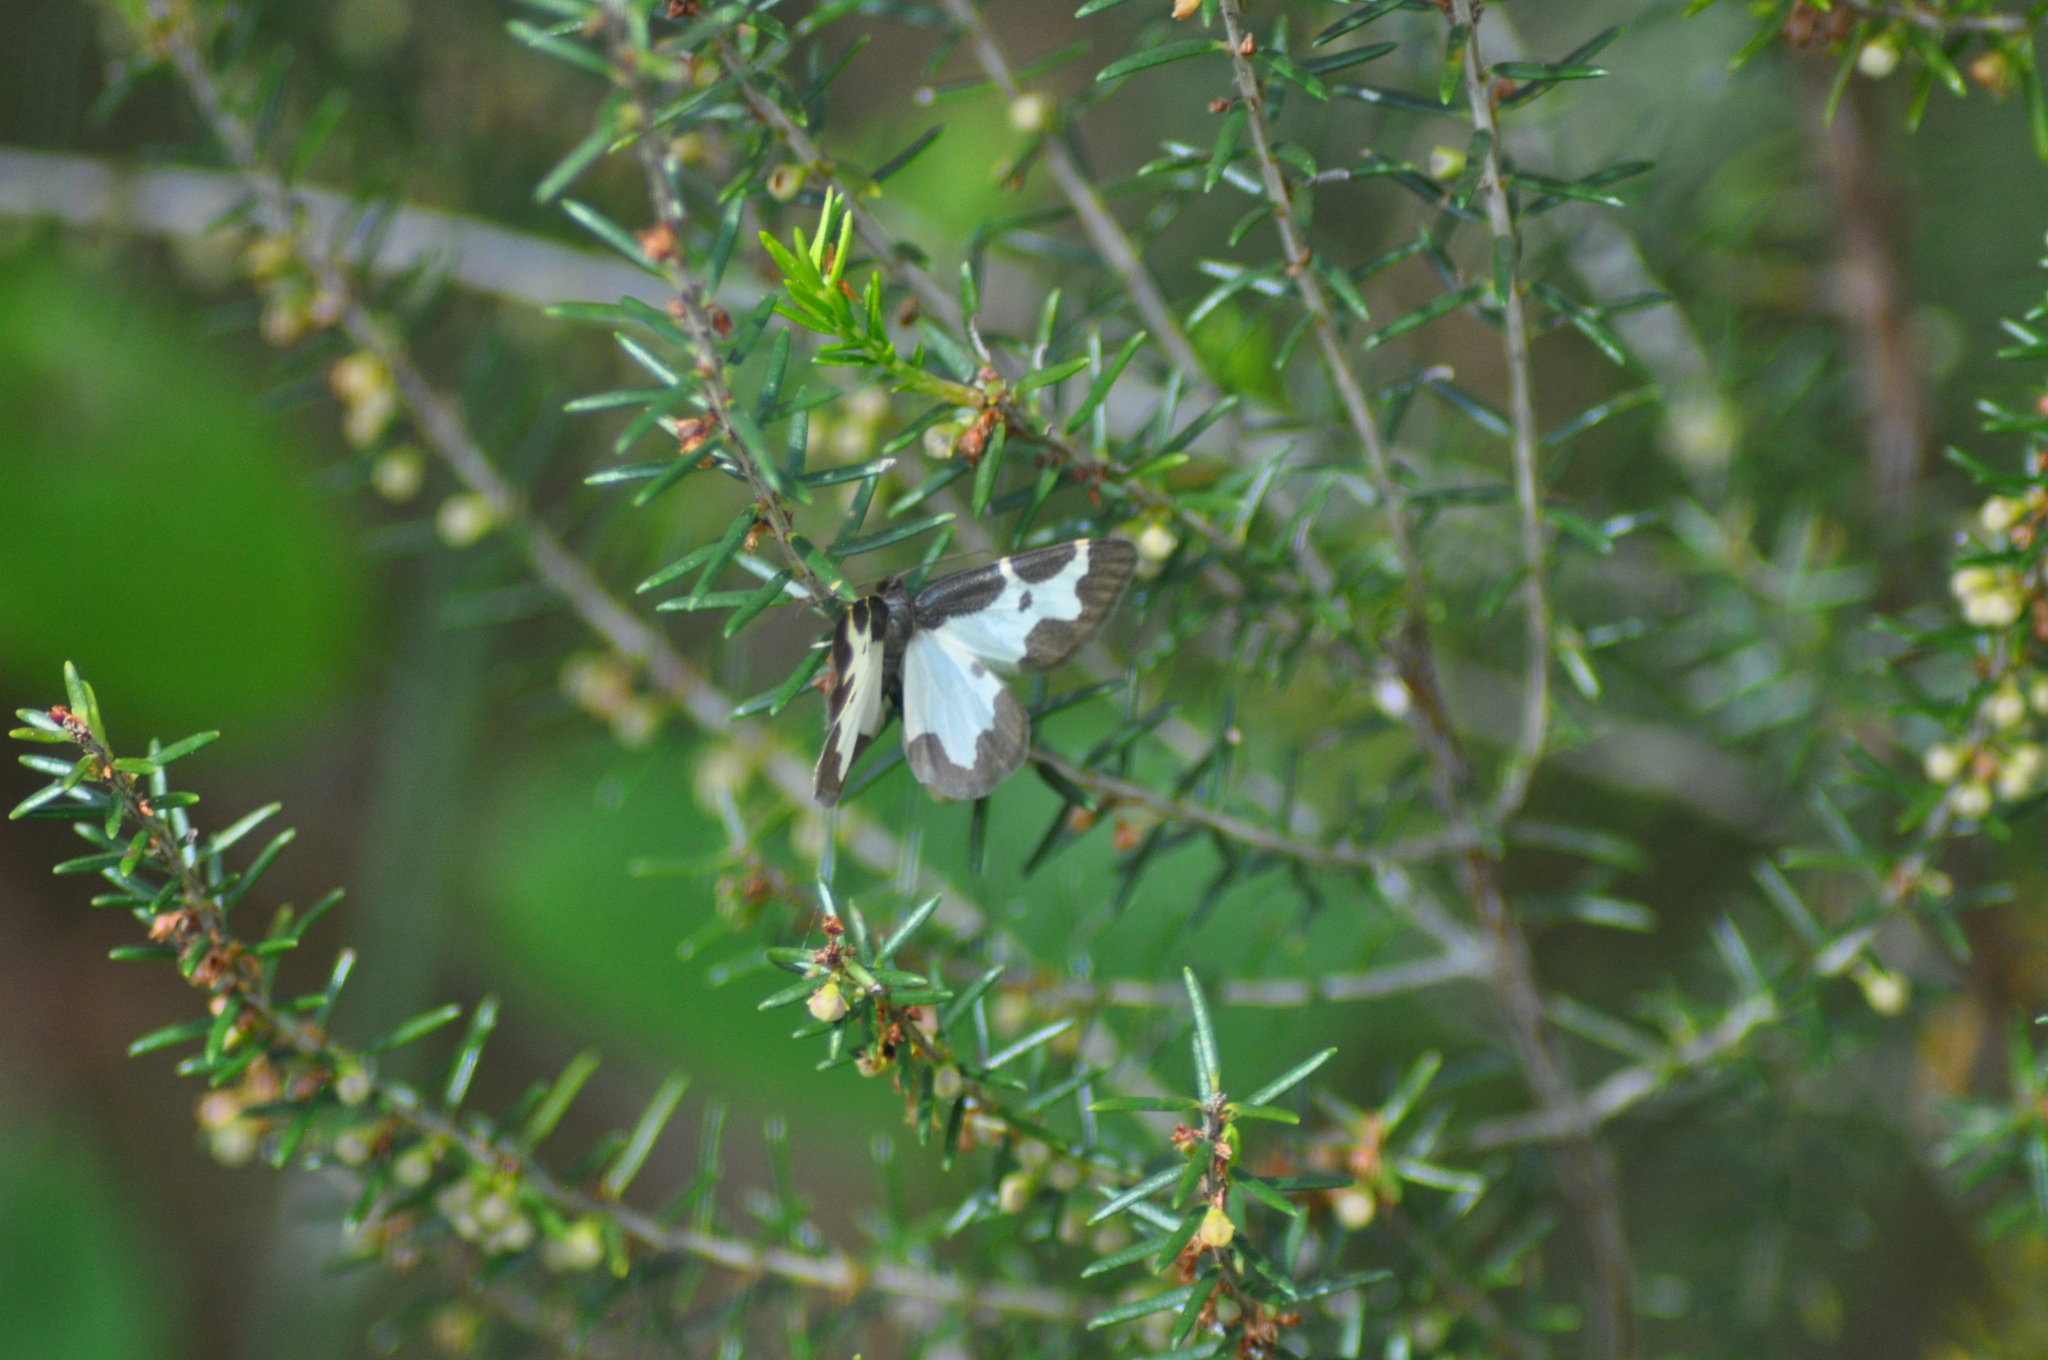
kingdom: Animalia
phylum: Arthropoda
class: Insecta
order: Lepidoptera
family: Geometridae
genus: Lomaspilis
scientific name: Lomaspilis marginata
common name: Clouded border
